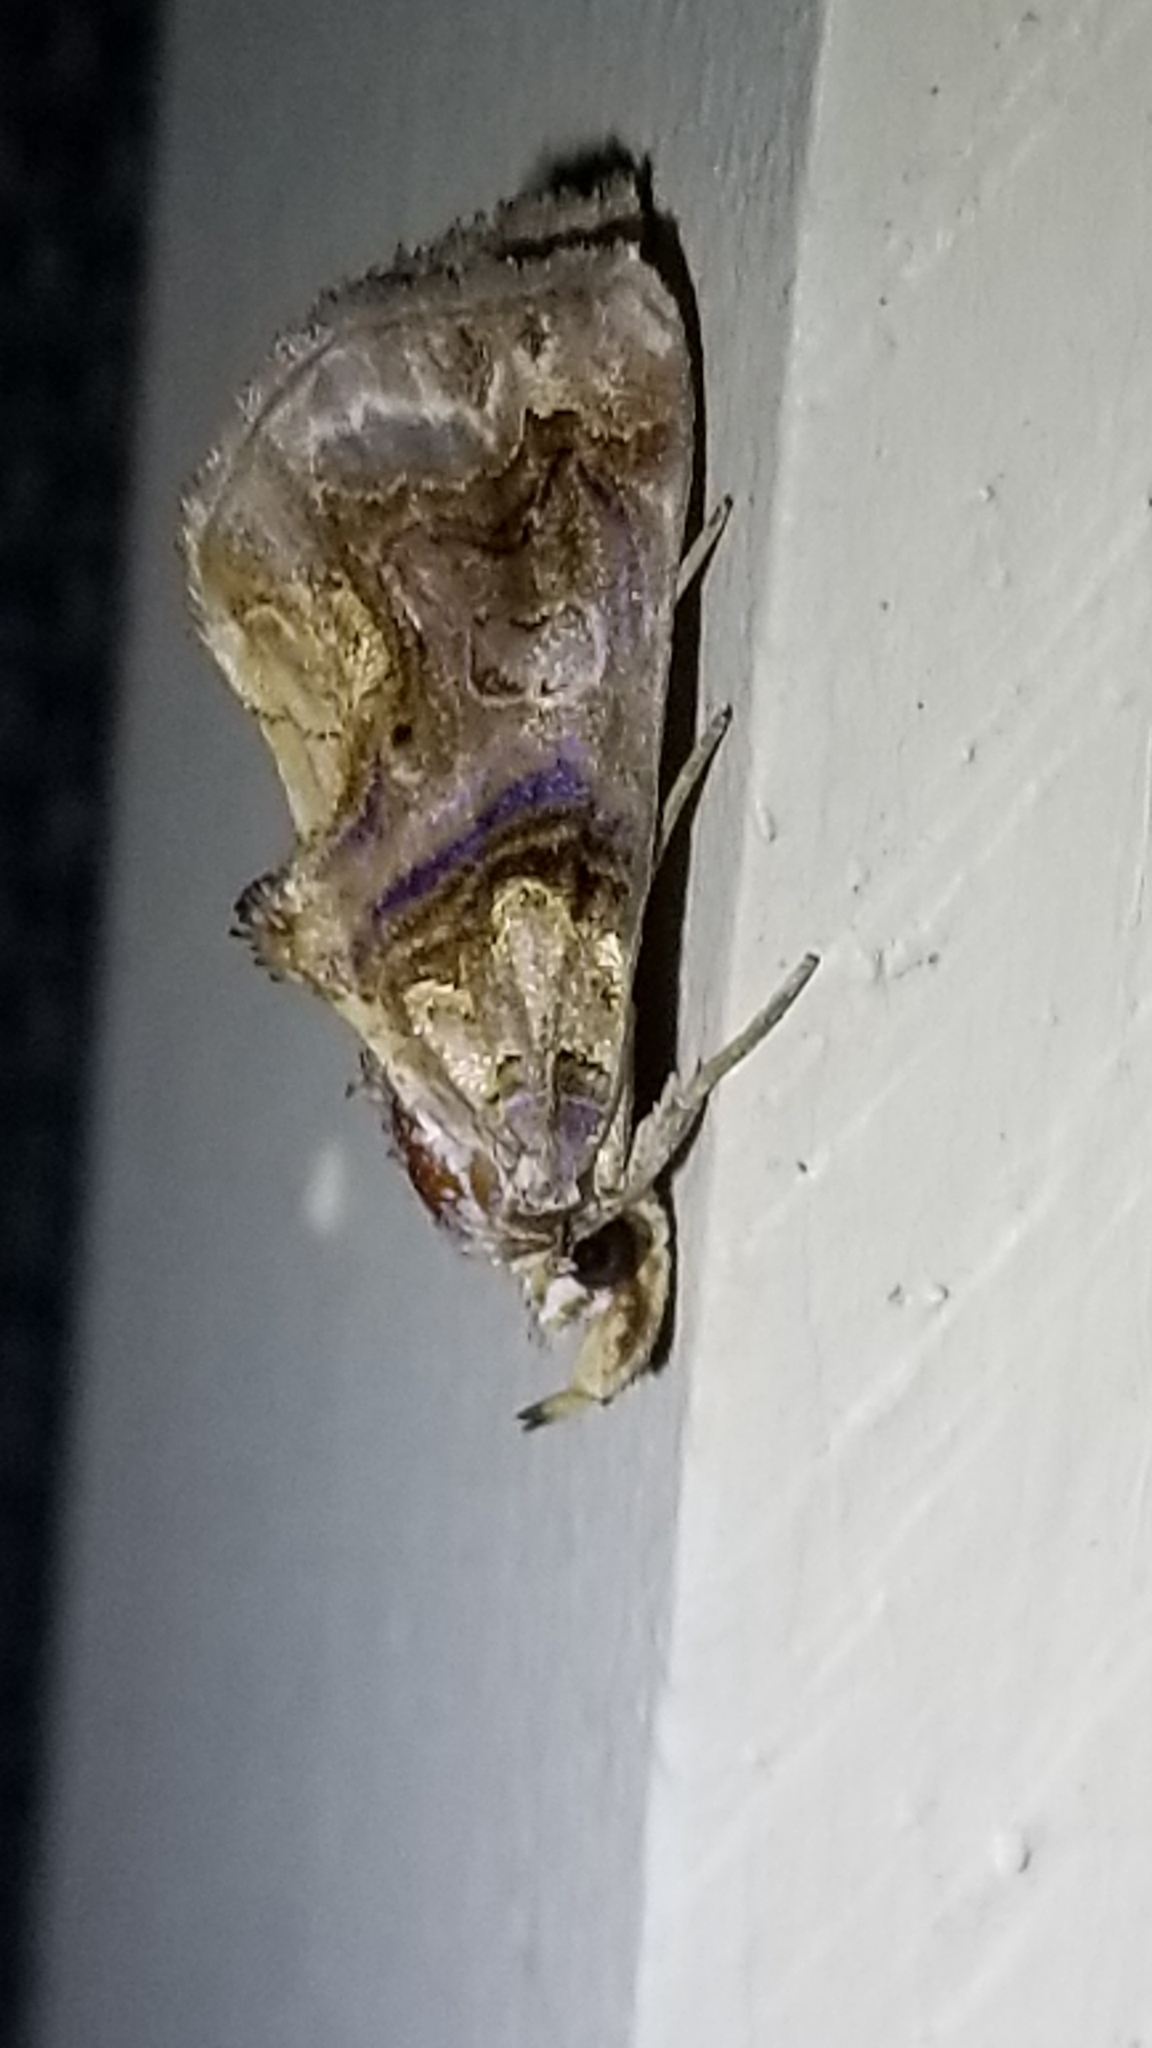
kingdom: Animalia
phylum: Arthropoda
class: Insecta
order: Lepidoptera
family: Erebidae
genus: Plusiodonta
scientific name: Plusiodonta compressipalpis
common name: Moonseed moth
